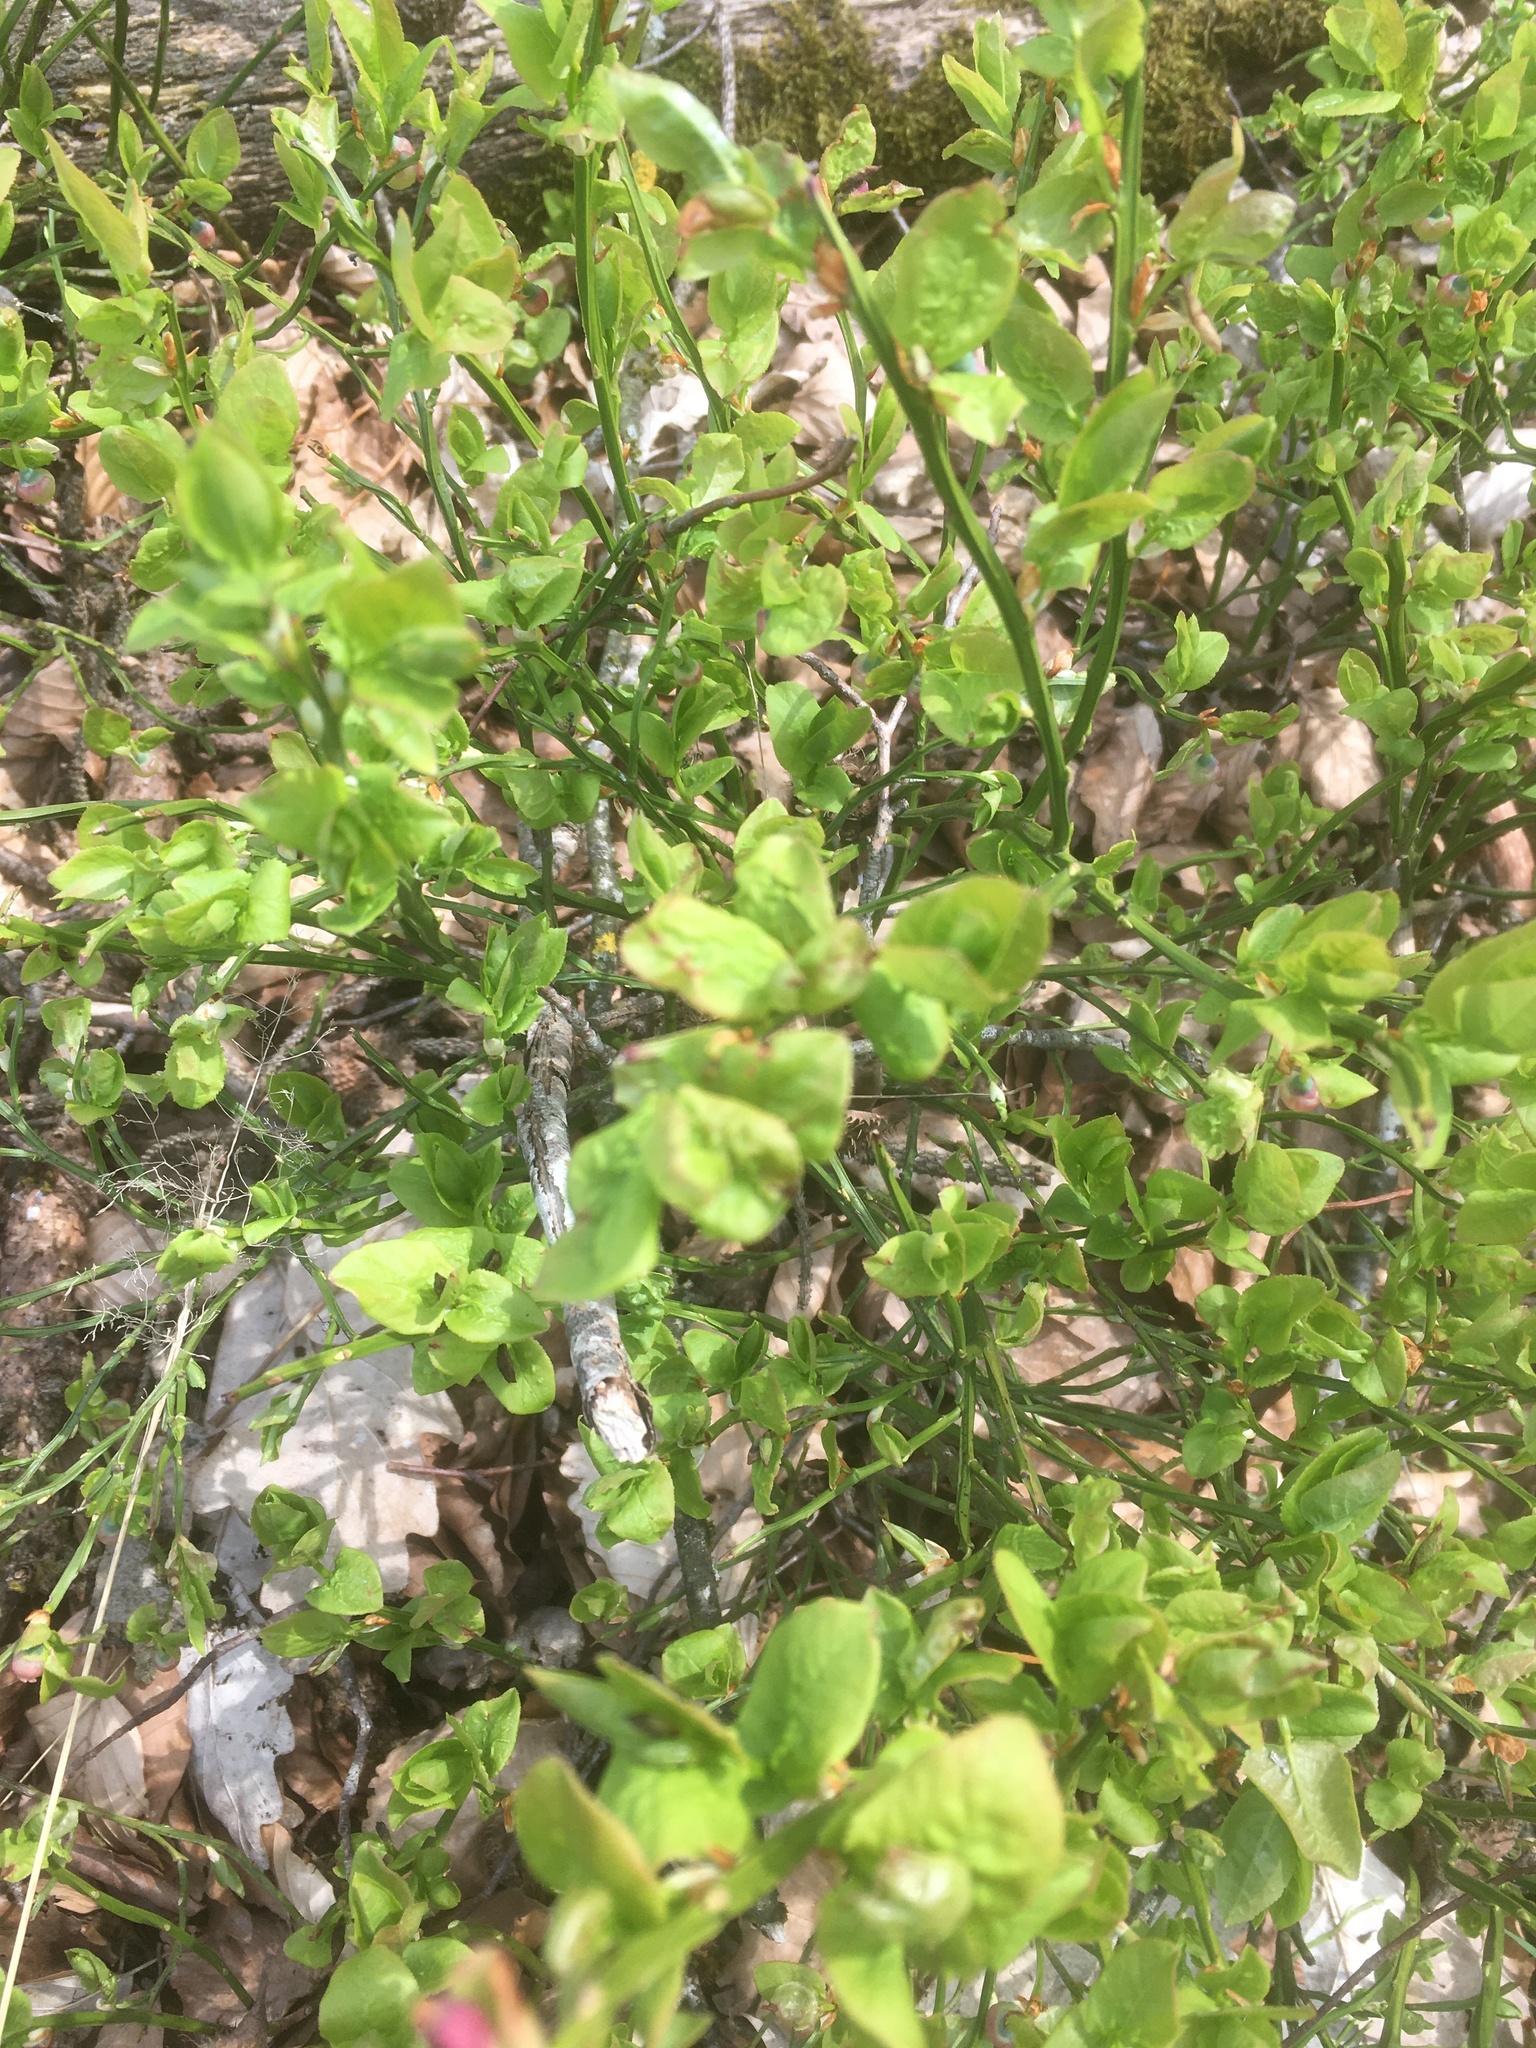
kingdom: Plantae
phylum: Tracheophyta
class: Magnoliopsida
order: Ericales
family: Ericaceae
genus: Vaccinium
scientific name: Vaccinium myrtillus
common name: Bilberry
